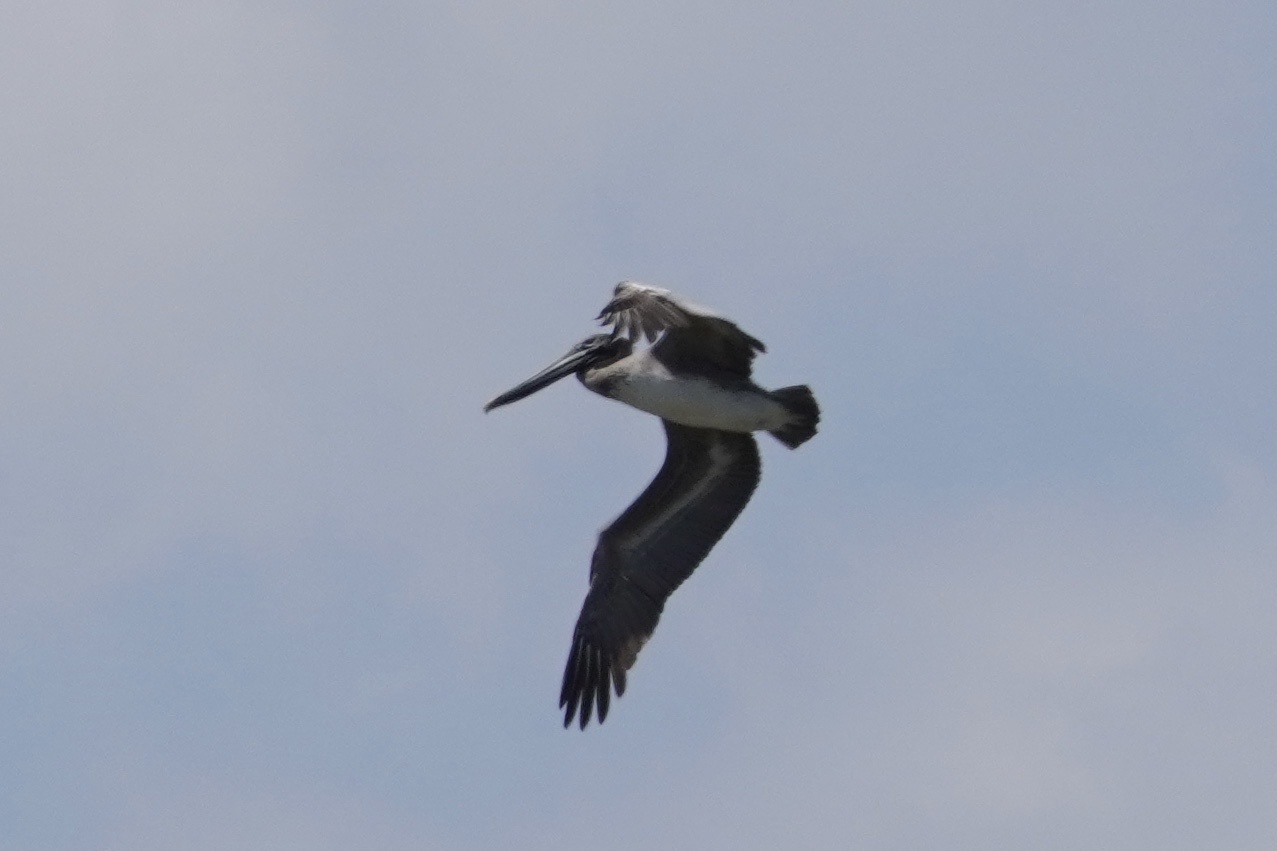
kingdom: Animalia
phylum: Chordata
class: Aves
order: Pelecaniformes
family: Pelecanidae
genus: Pelecanus
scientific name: Pelecanus occidentalis
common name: Brown pelican
